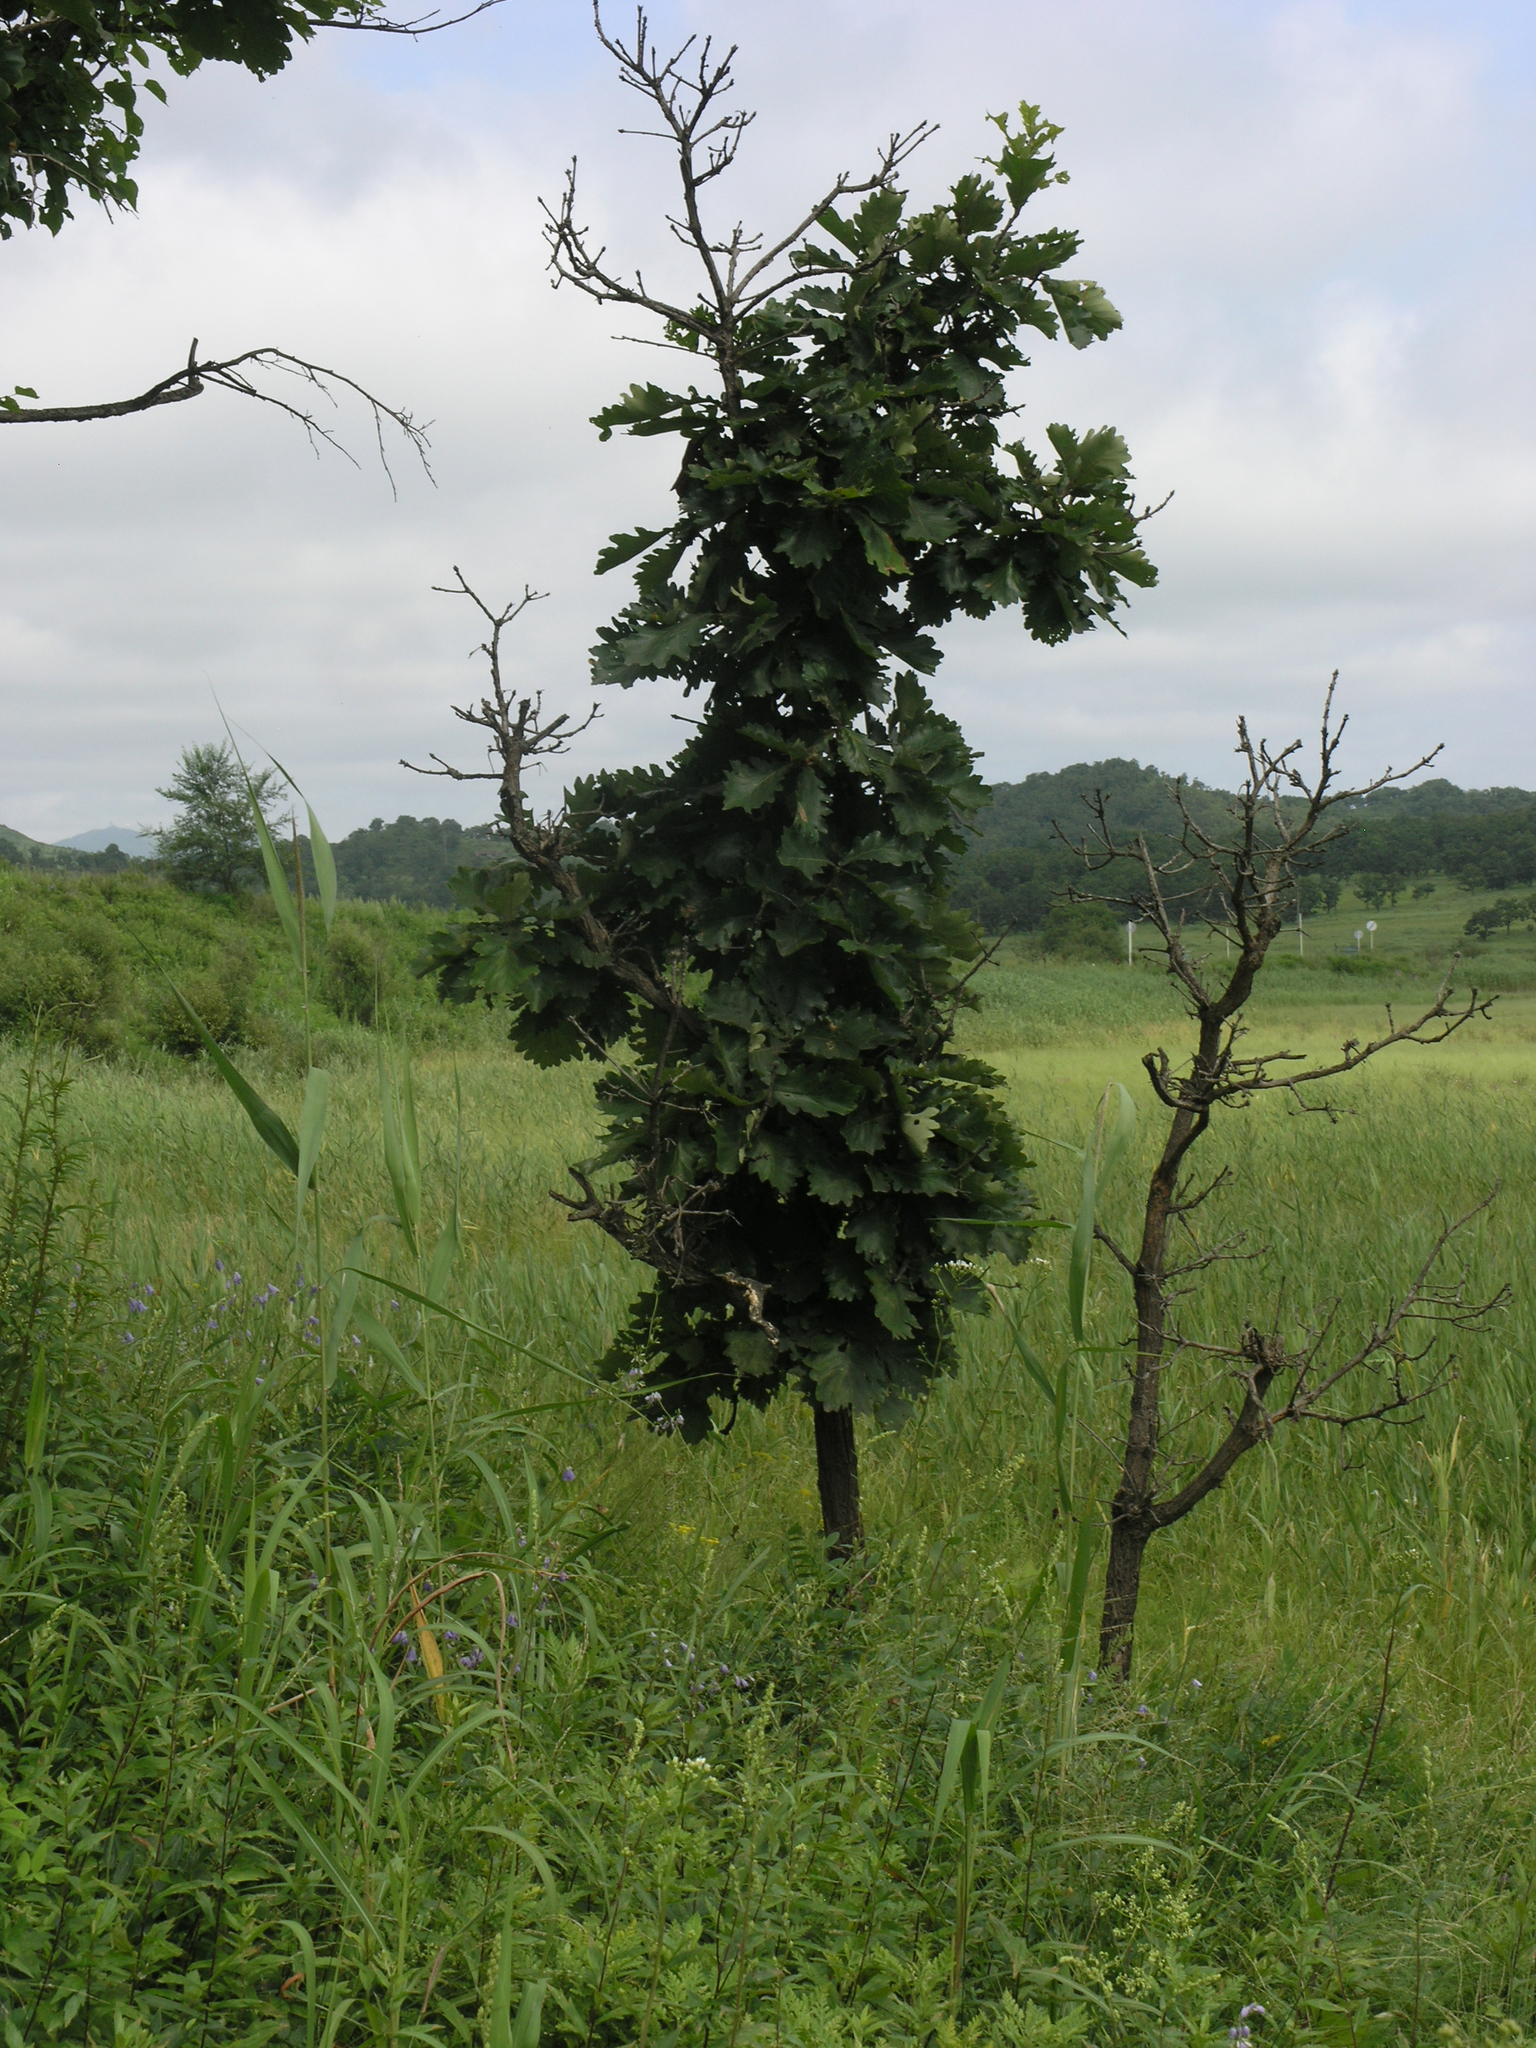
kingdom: Plantae
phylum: Tracheophyta
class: Magnoliopsida
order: Fagales
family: Fagaceae
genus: Quercus
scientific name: Quercus dentata
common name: Daimyo oak
